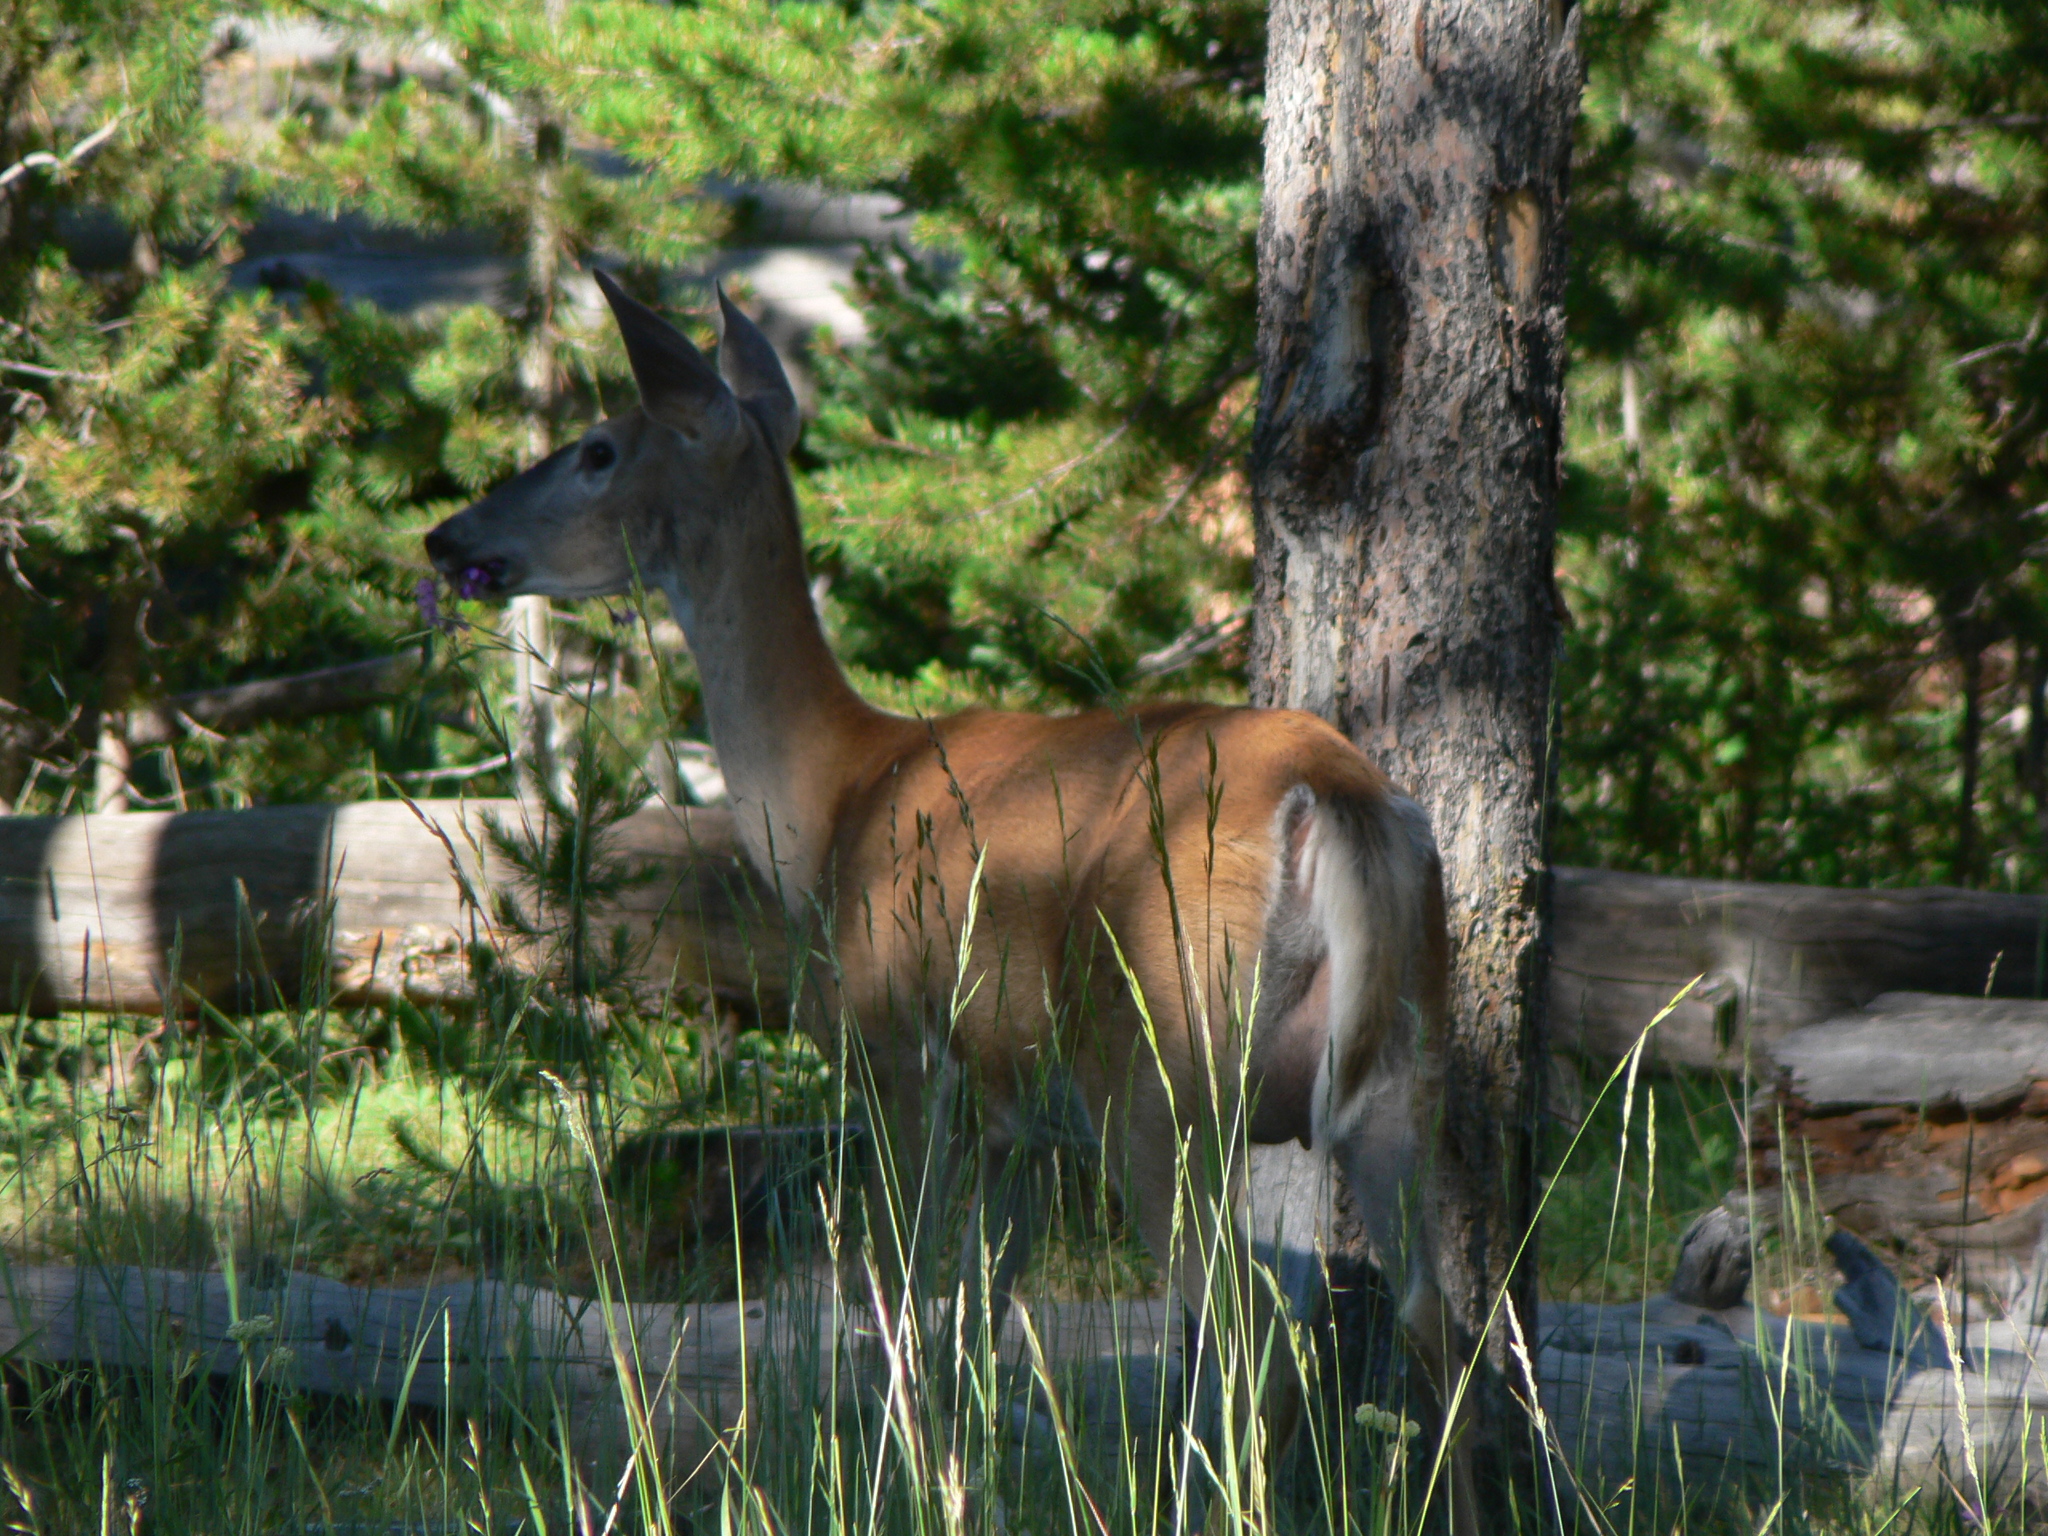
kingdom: Animalia
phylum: Chordata
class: Mammalia
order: Artiodactyla
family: Cervidae
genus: Odocoileus
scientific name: Odocoileus virginianus
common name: White-tailed deer
